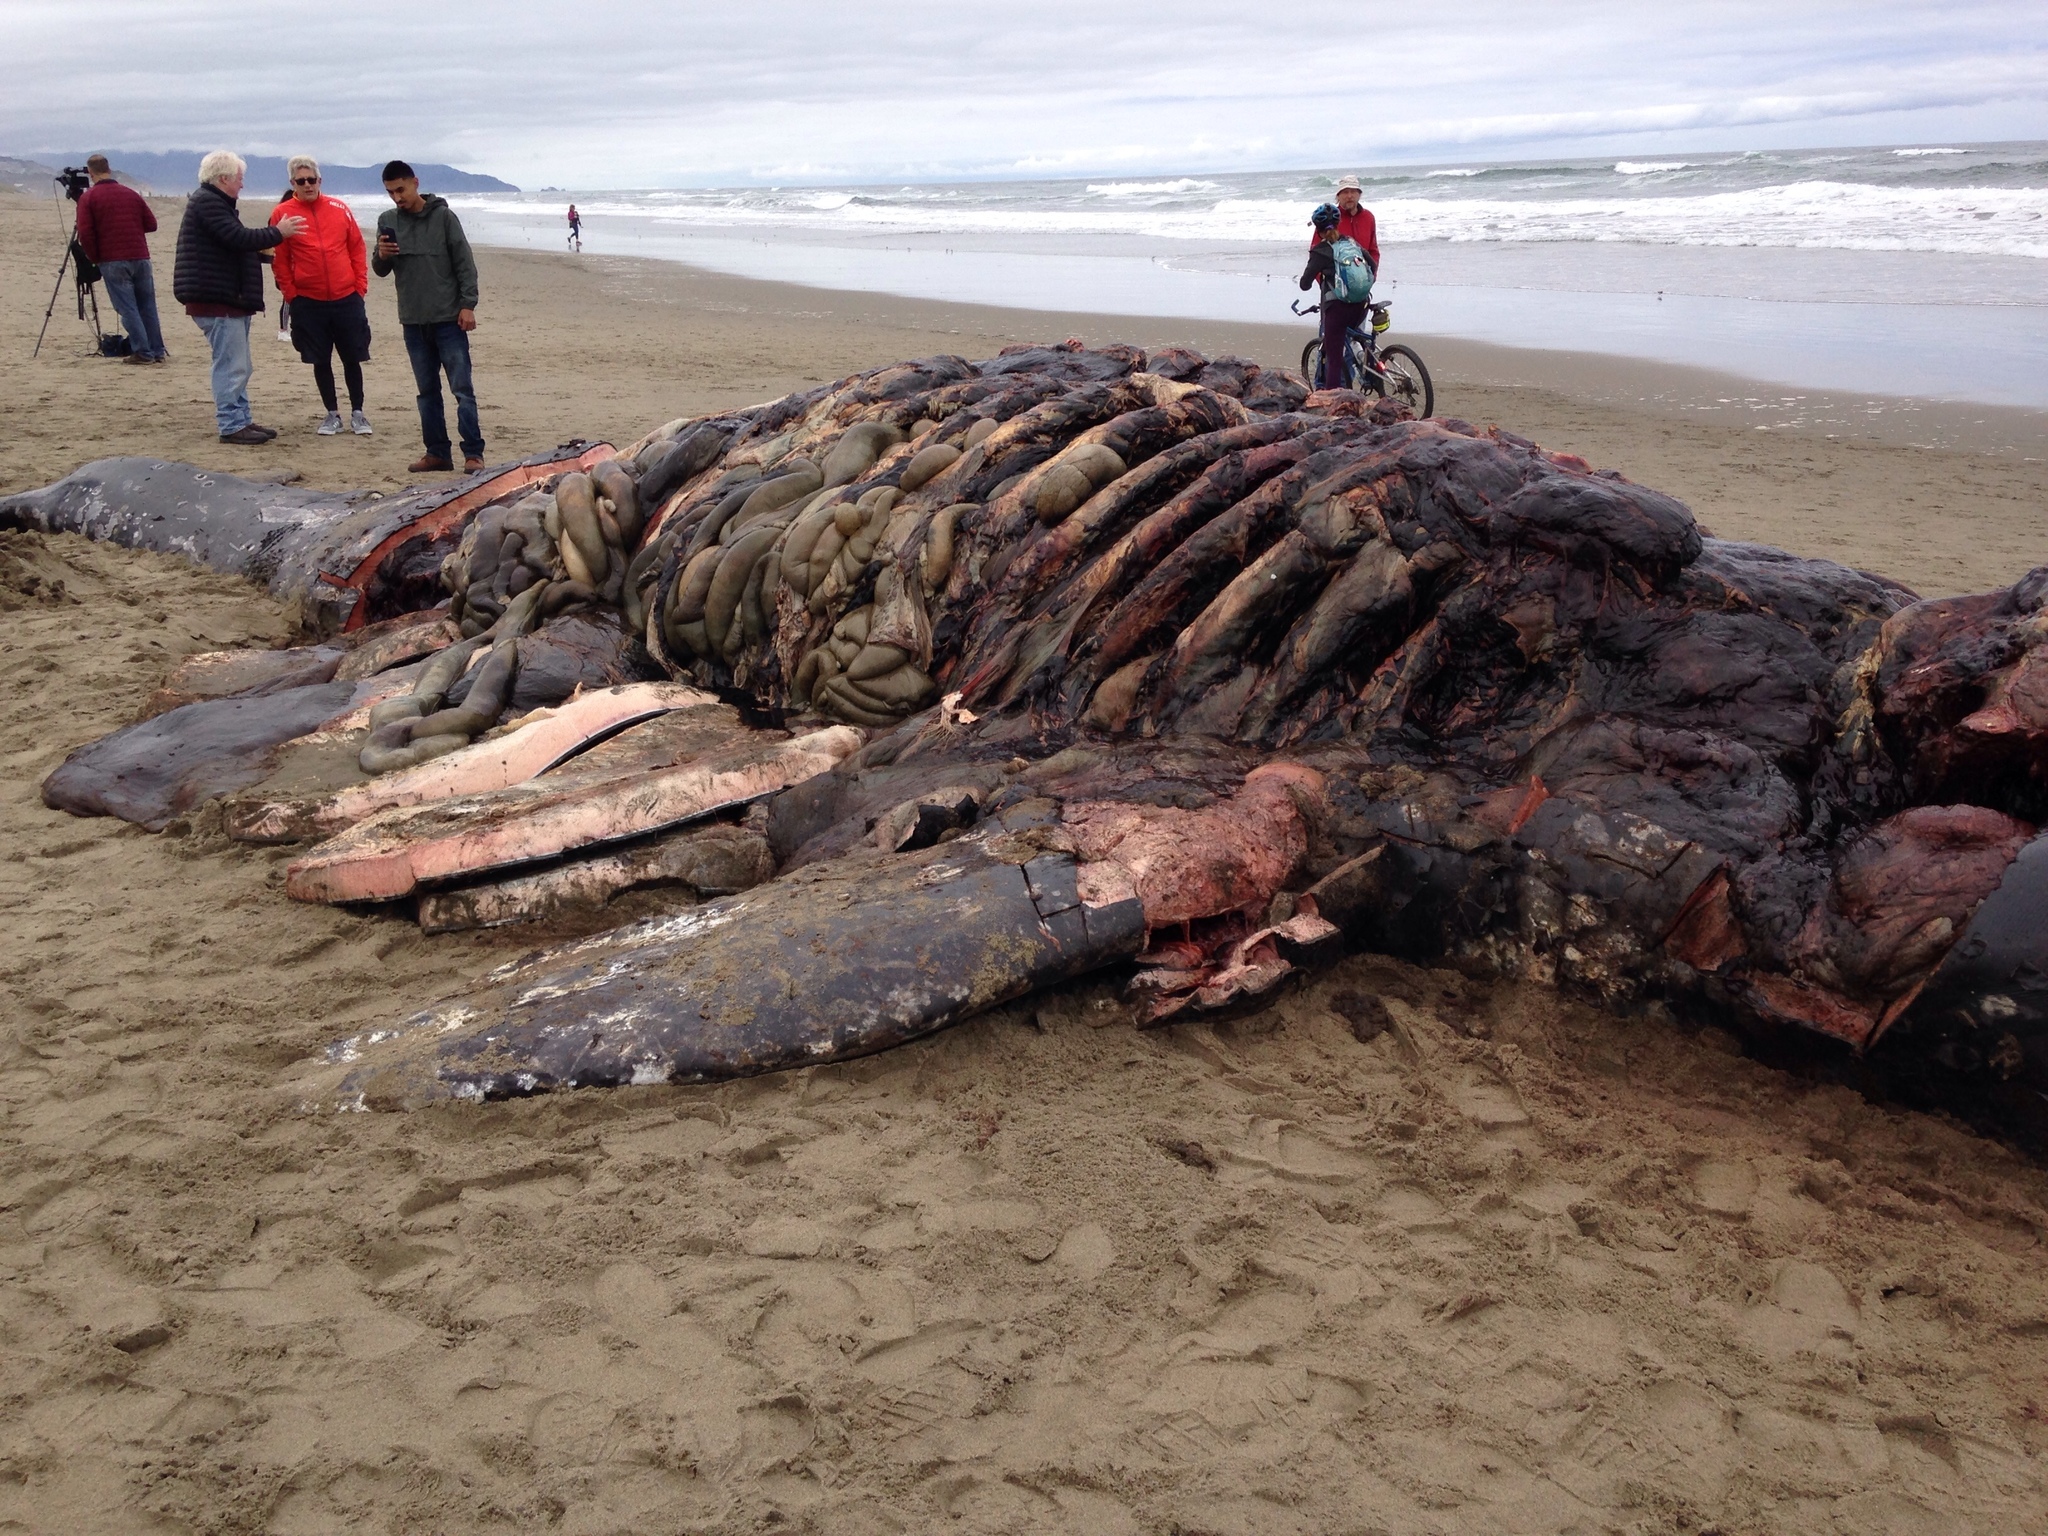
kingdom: Animalia
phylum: Chordata
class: Mammalia
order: Cetacea
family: Eschrichtiidae
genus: Eschrichtius
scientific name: Eschrichtius robustus
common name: Gray whale
